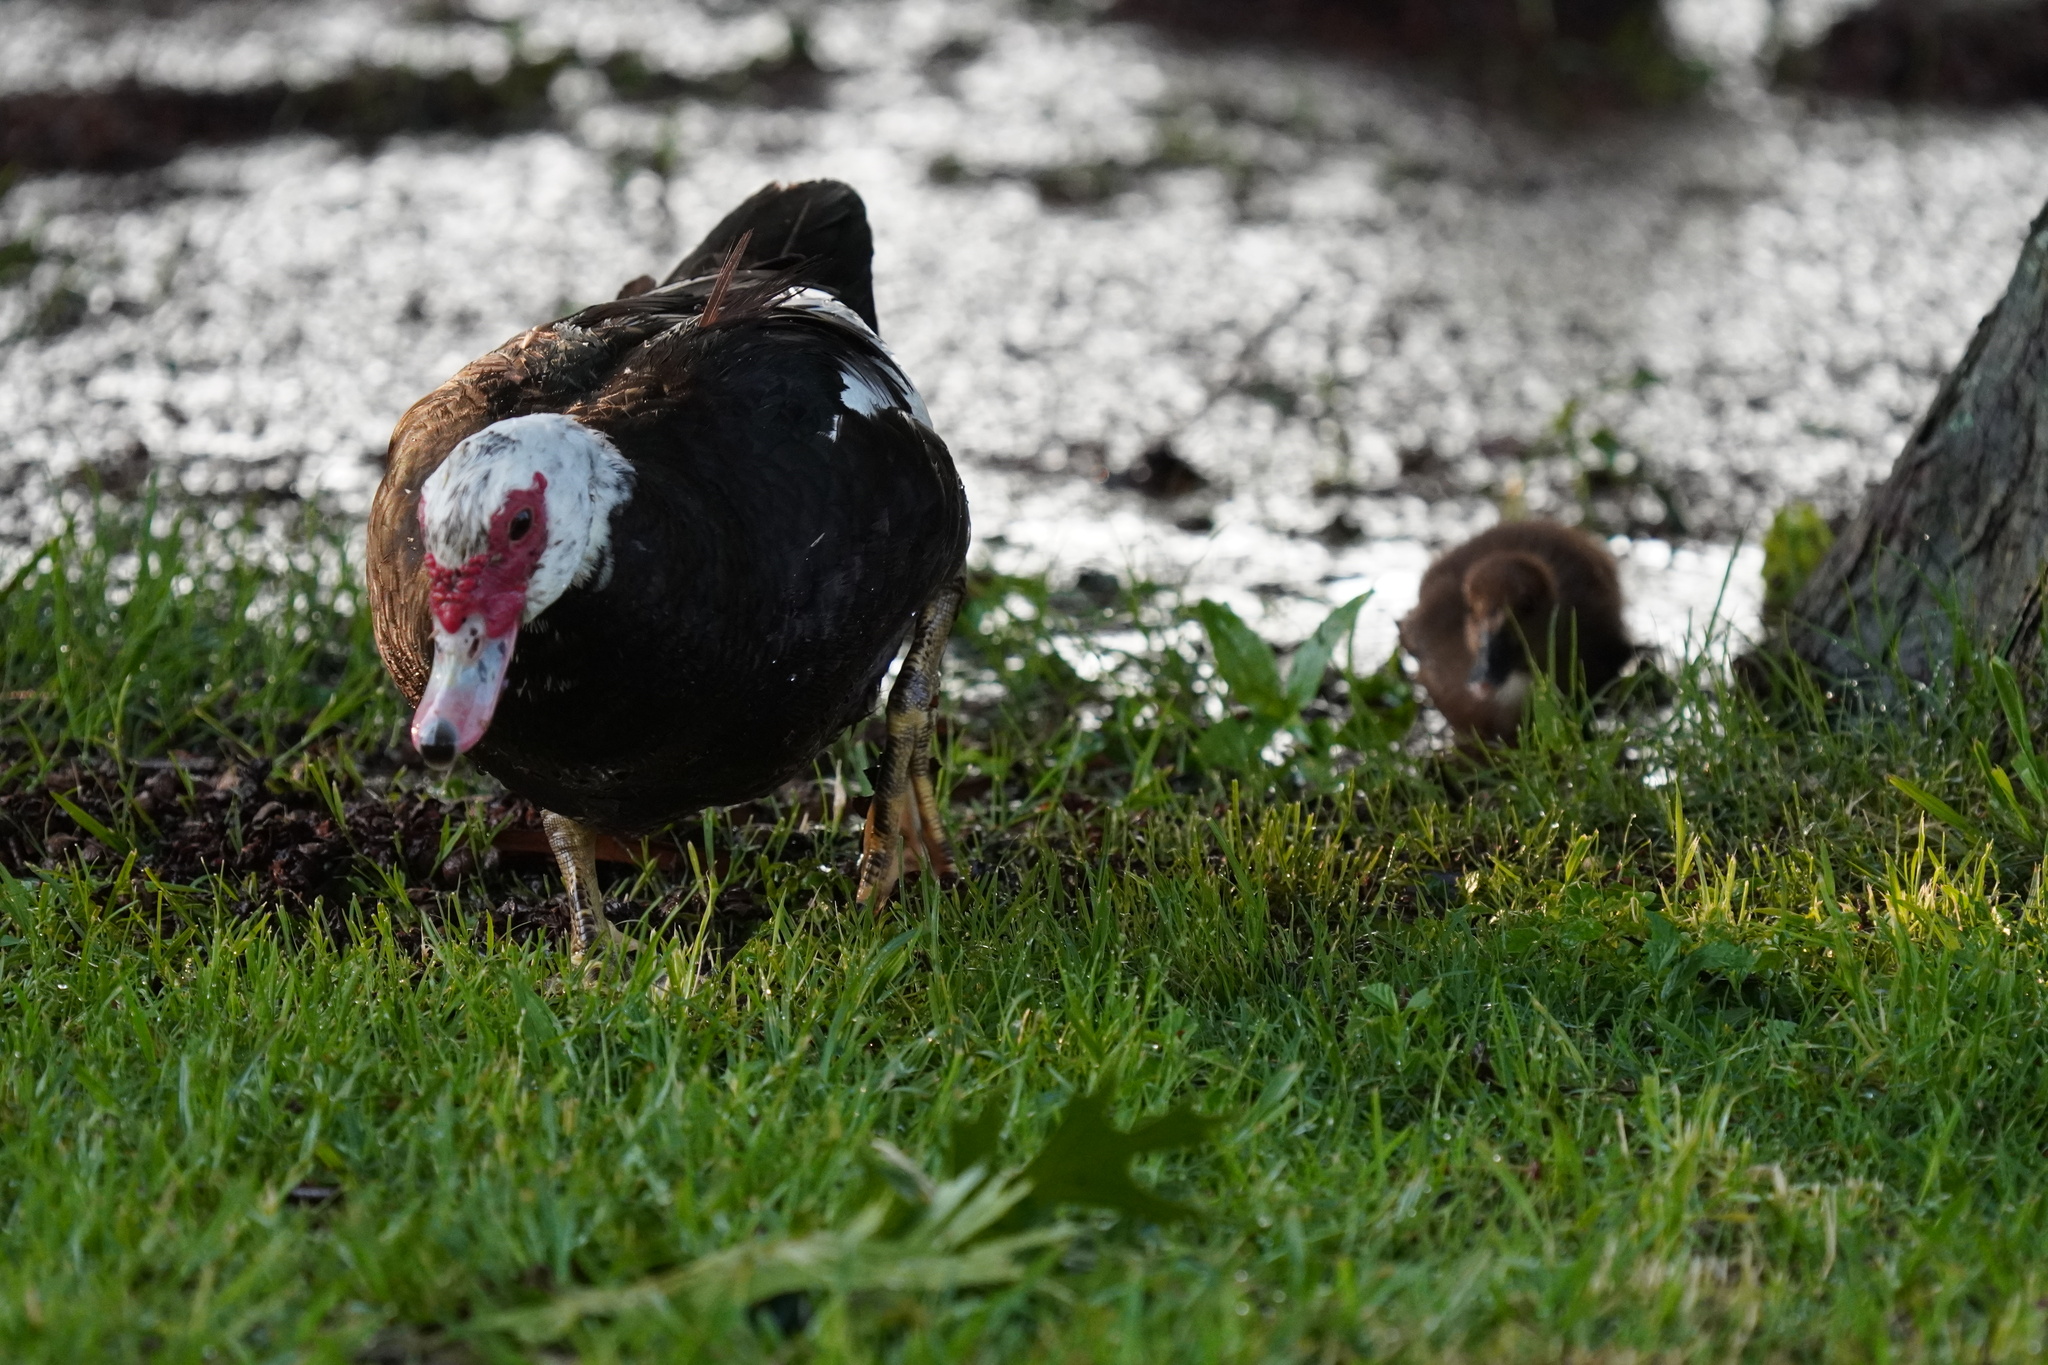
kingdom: Animalia
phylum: Chordata
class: Aves
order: Anseriformes
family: Anatidae
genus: Cairina
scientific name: Cairina moschata
